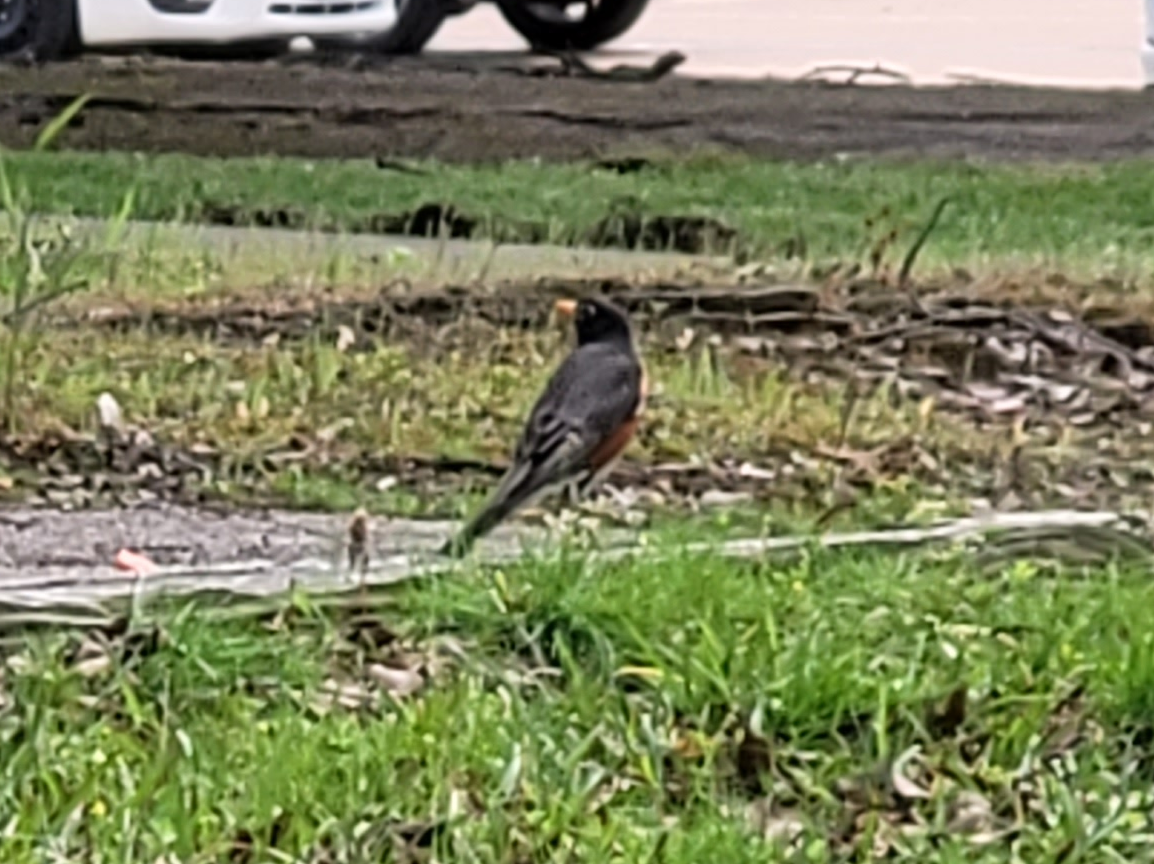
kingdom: Animalia
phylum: Chordata
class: Aves
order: Passeriformes
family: Turdidae
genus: Turdus
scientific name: Turdus migratorius
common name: American robin
